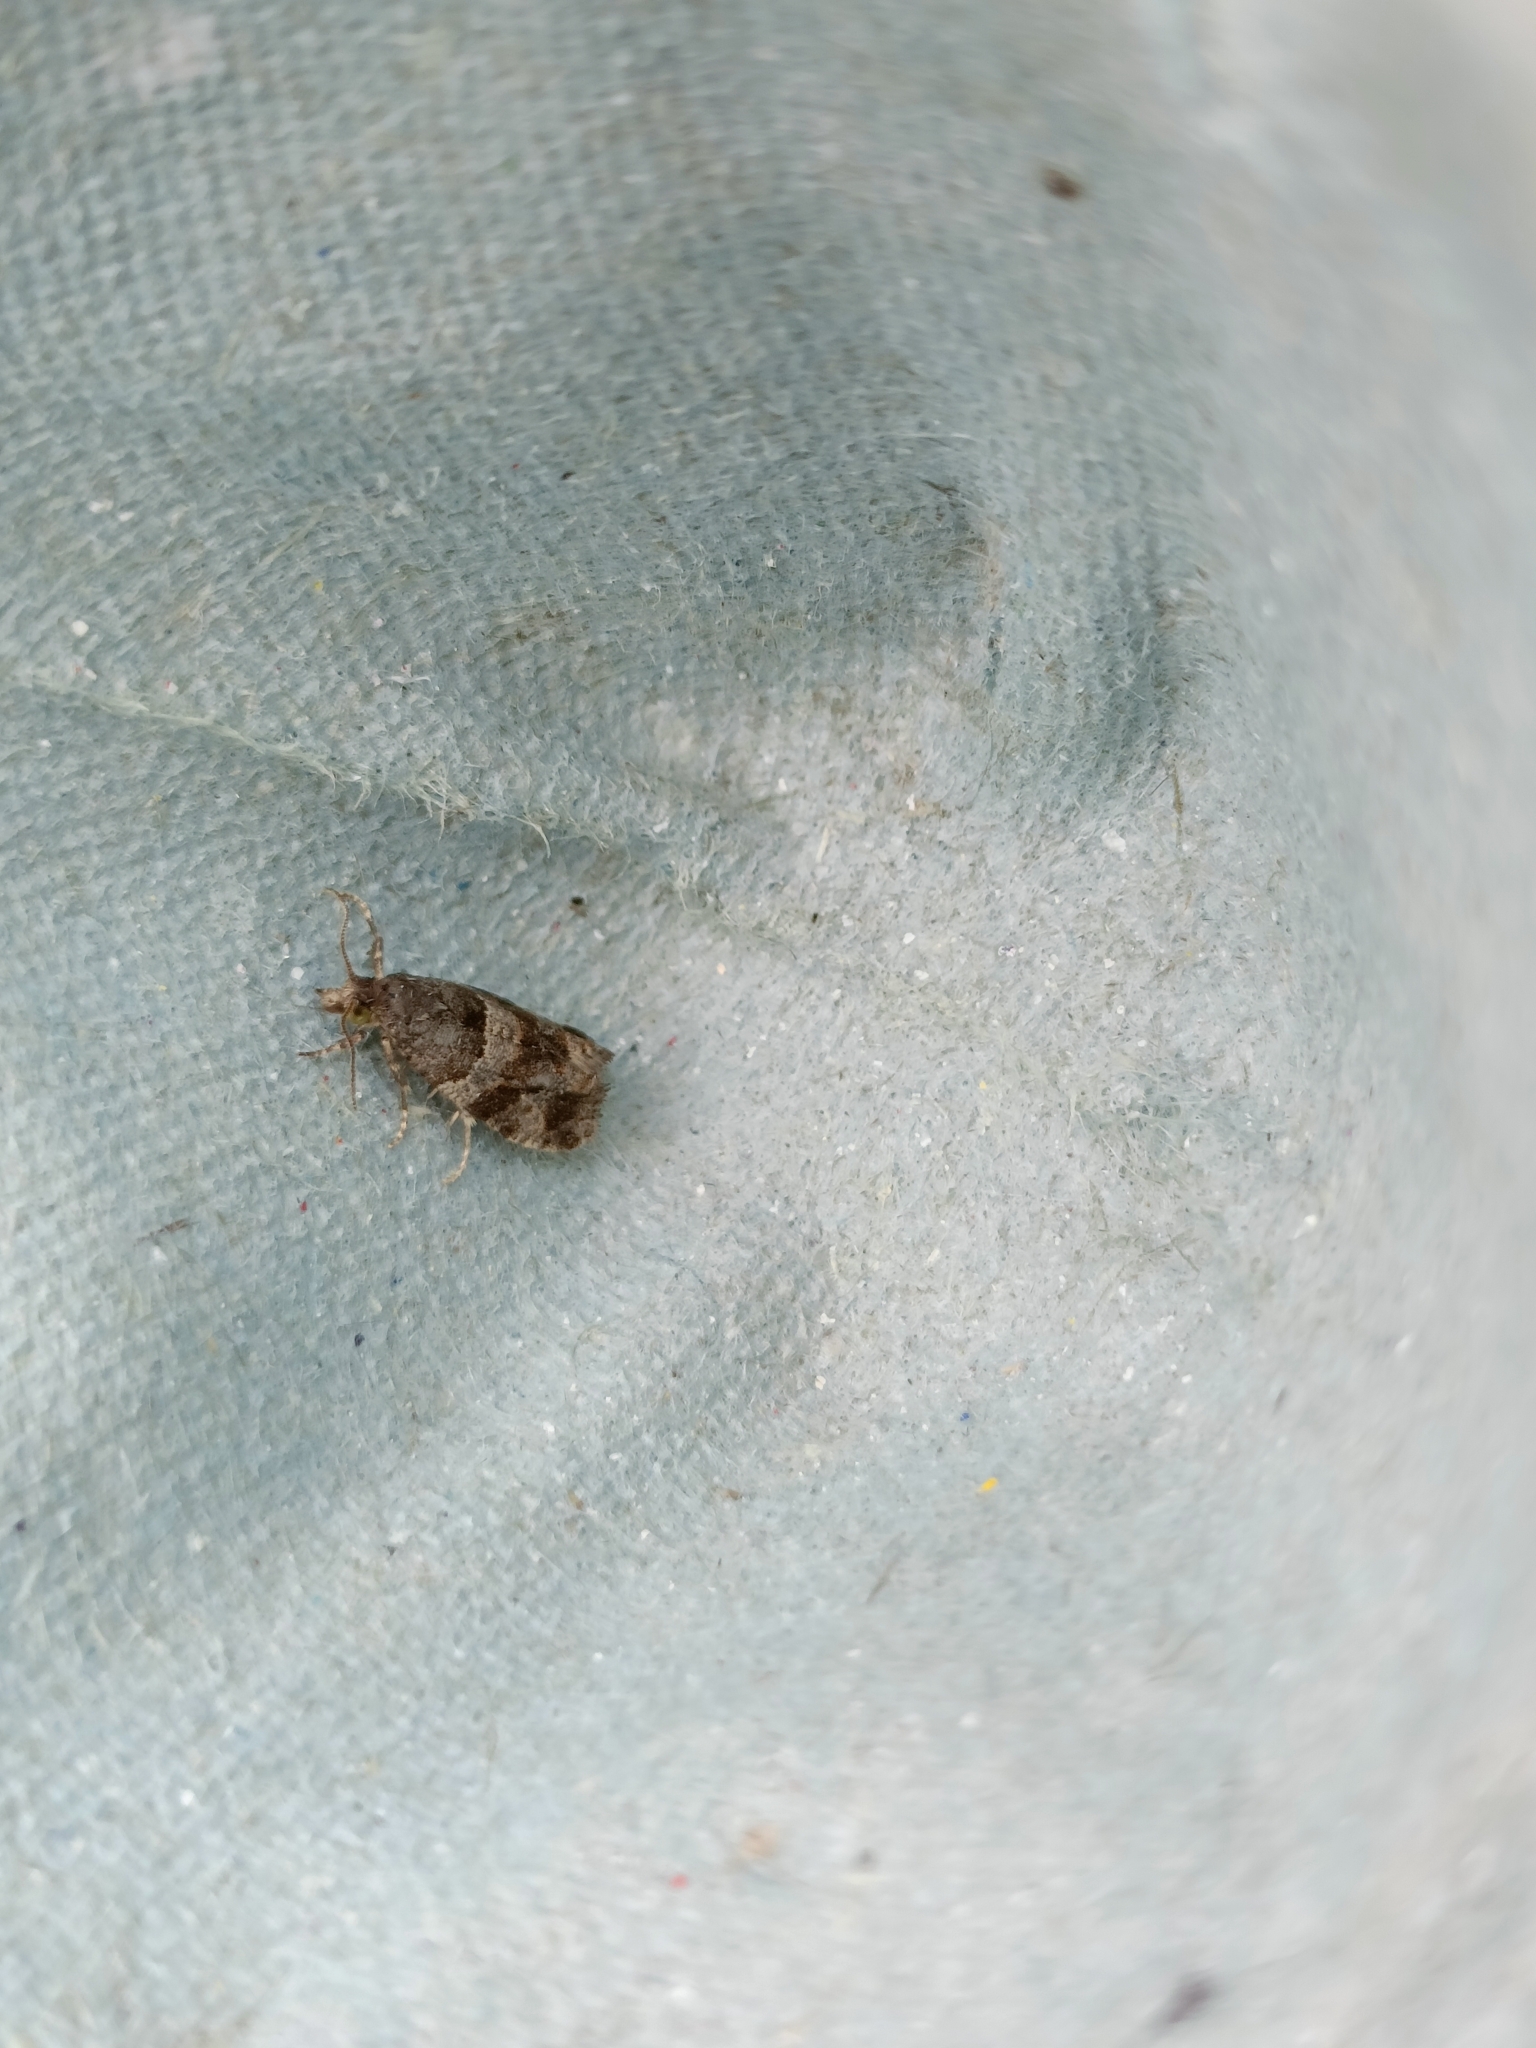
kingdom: Animalia
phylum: Arthropoda
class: Insecta
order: Lepidoptera
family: Tortricidae
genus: Lobesia
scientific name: Lobesia fuligana
